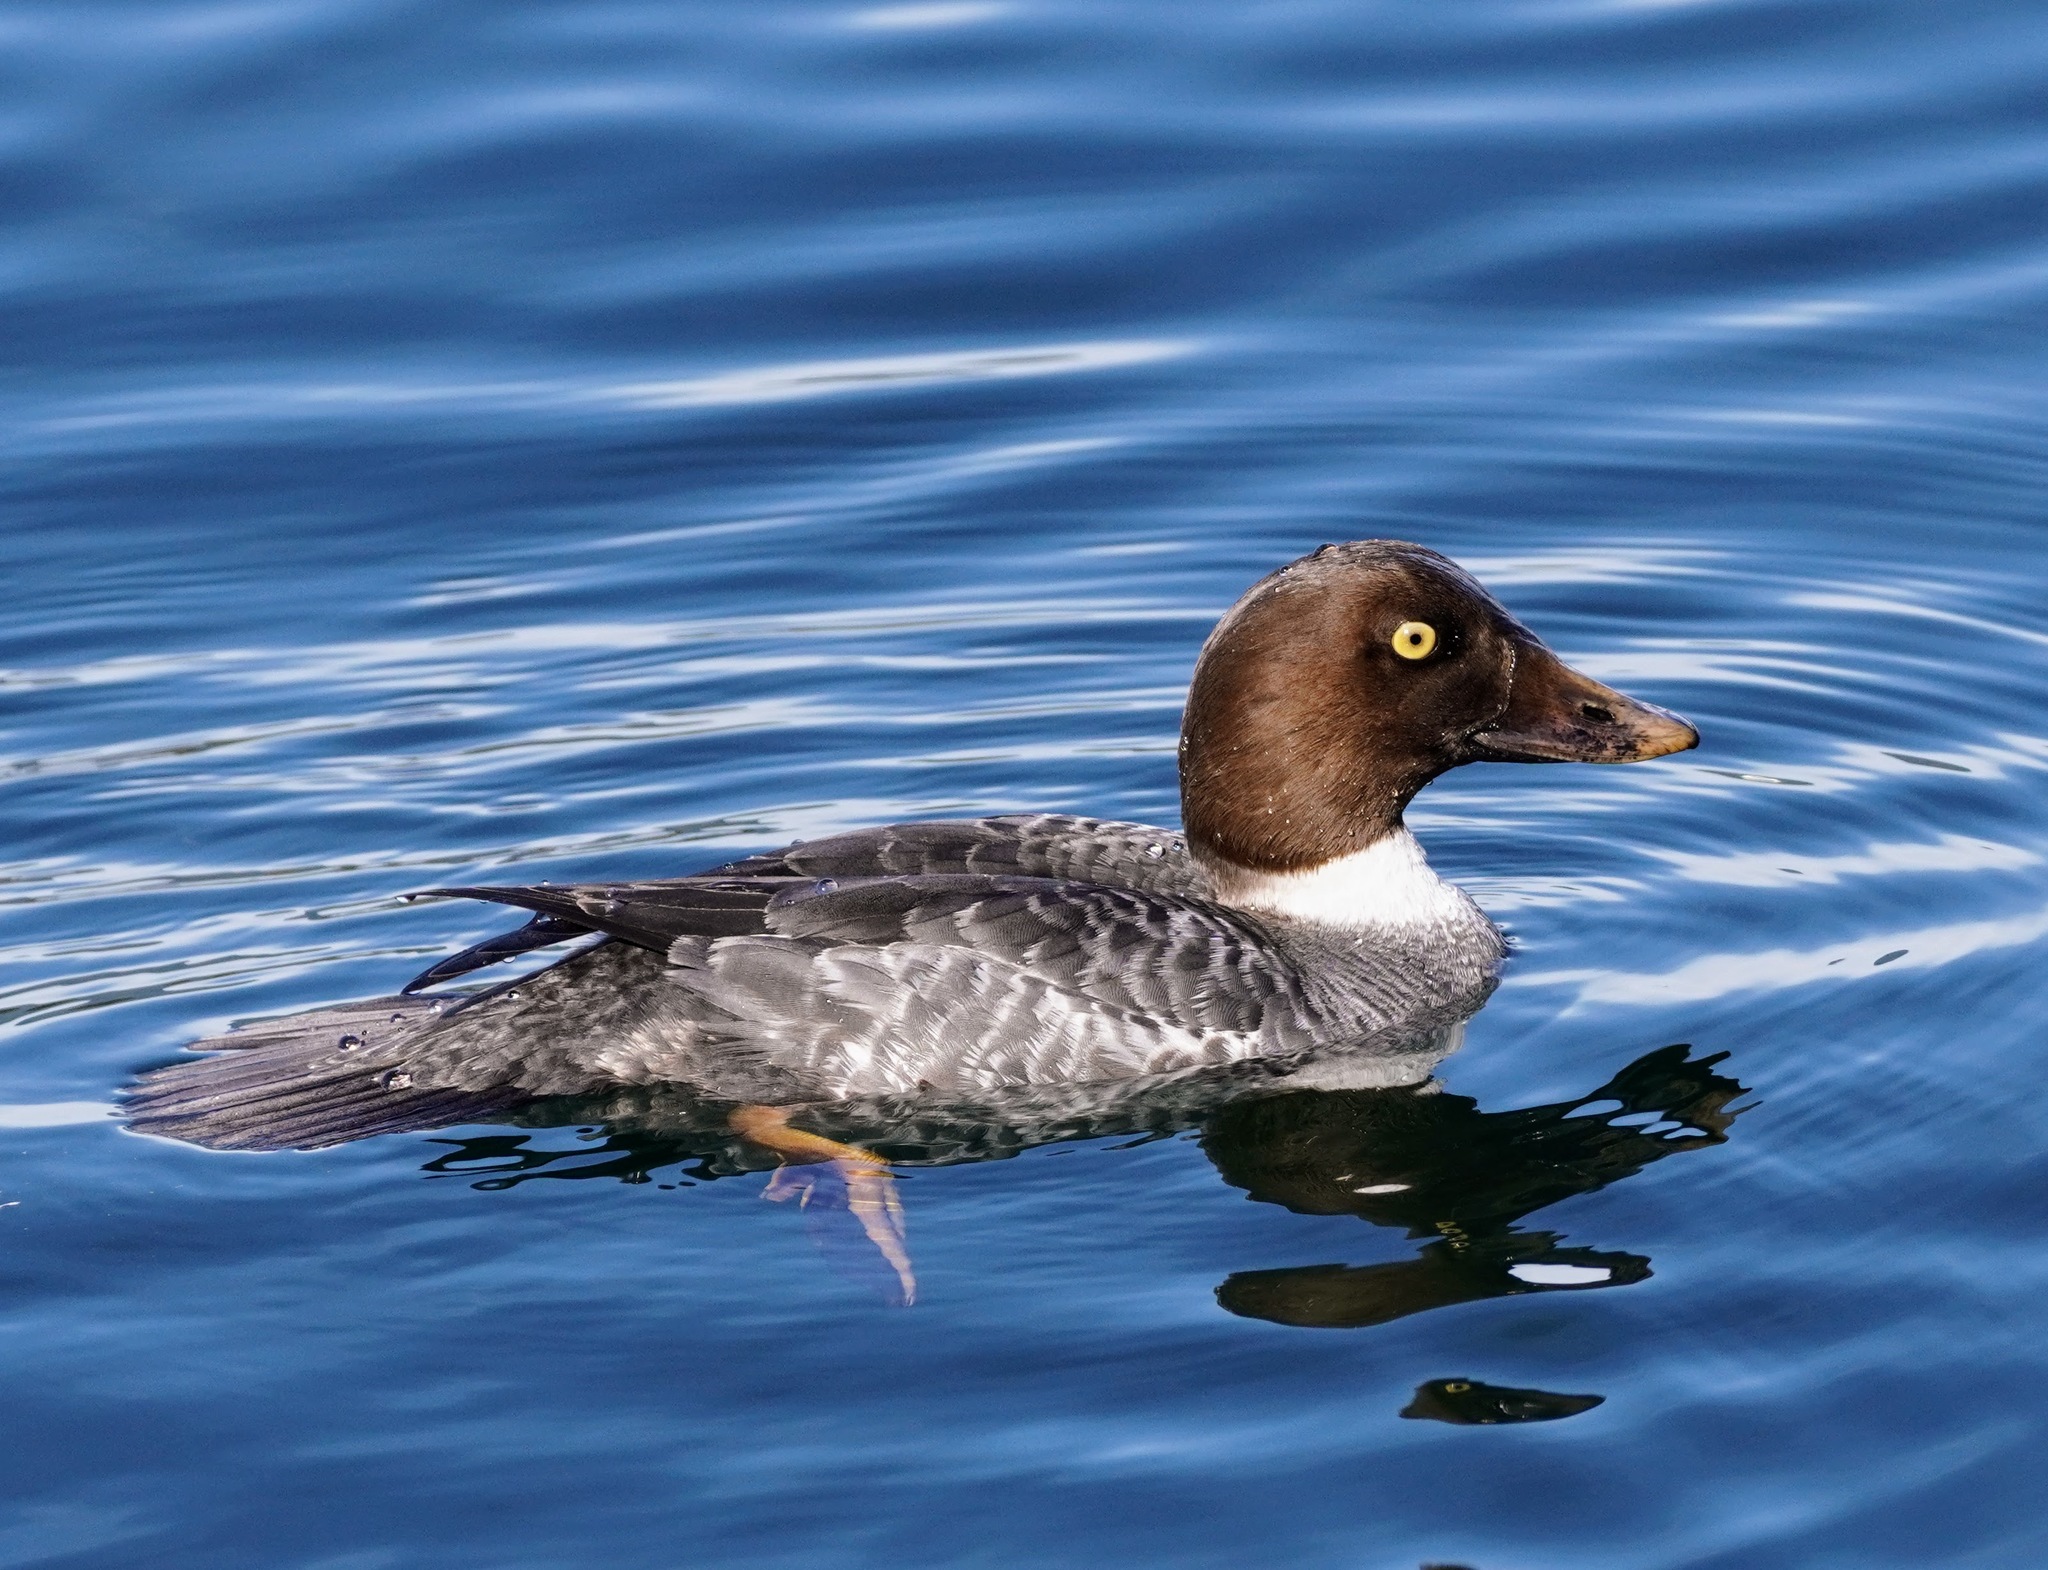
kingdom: Animalia
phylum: Chordata
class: Aves
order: Anseriformes
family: Anatidae
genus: Bucephala
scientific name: Bucephala clangula
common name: Common goldeneye
